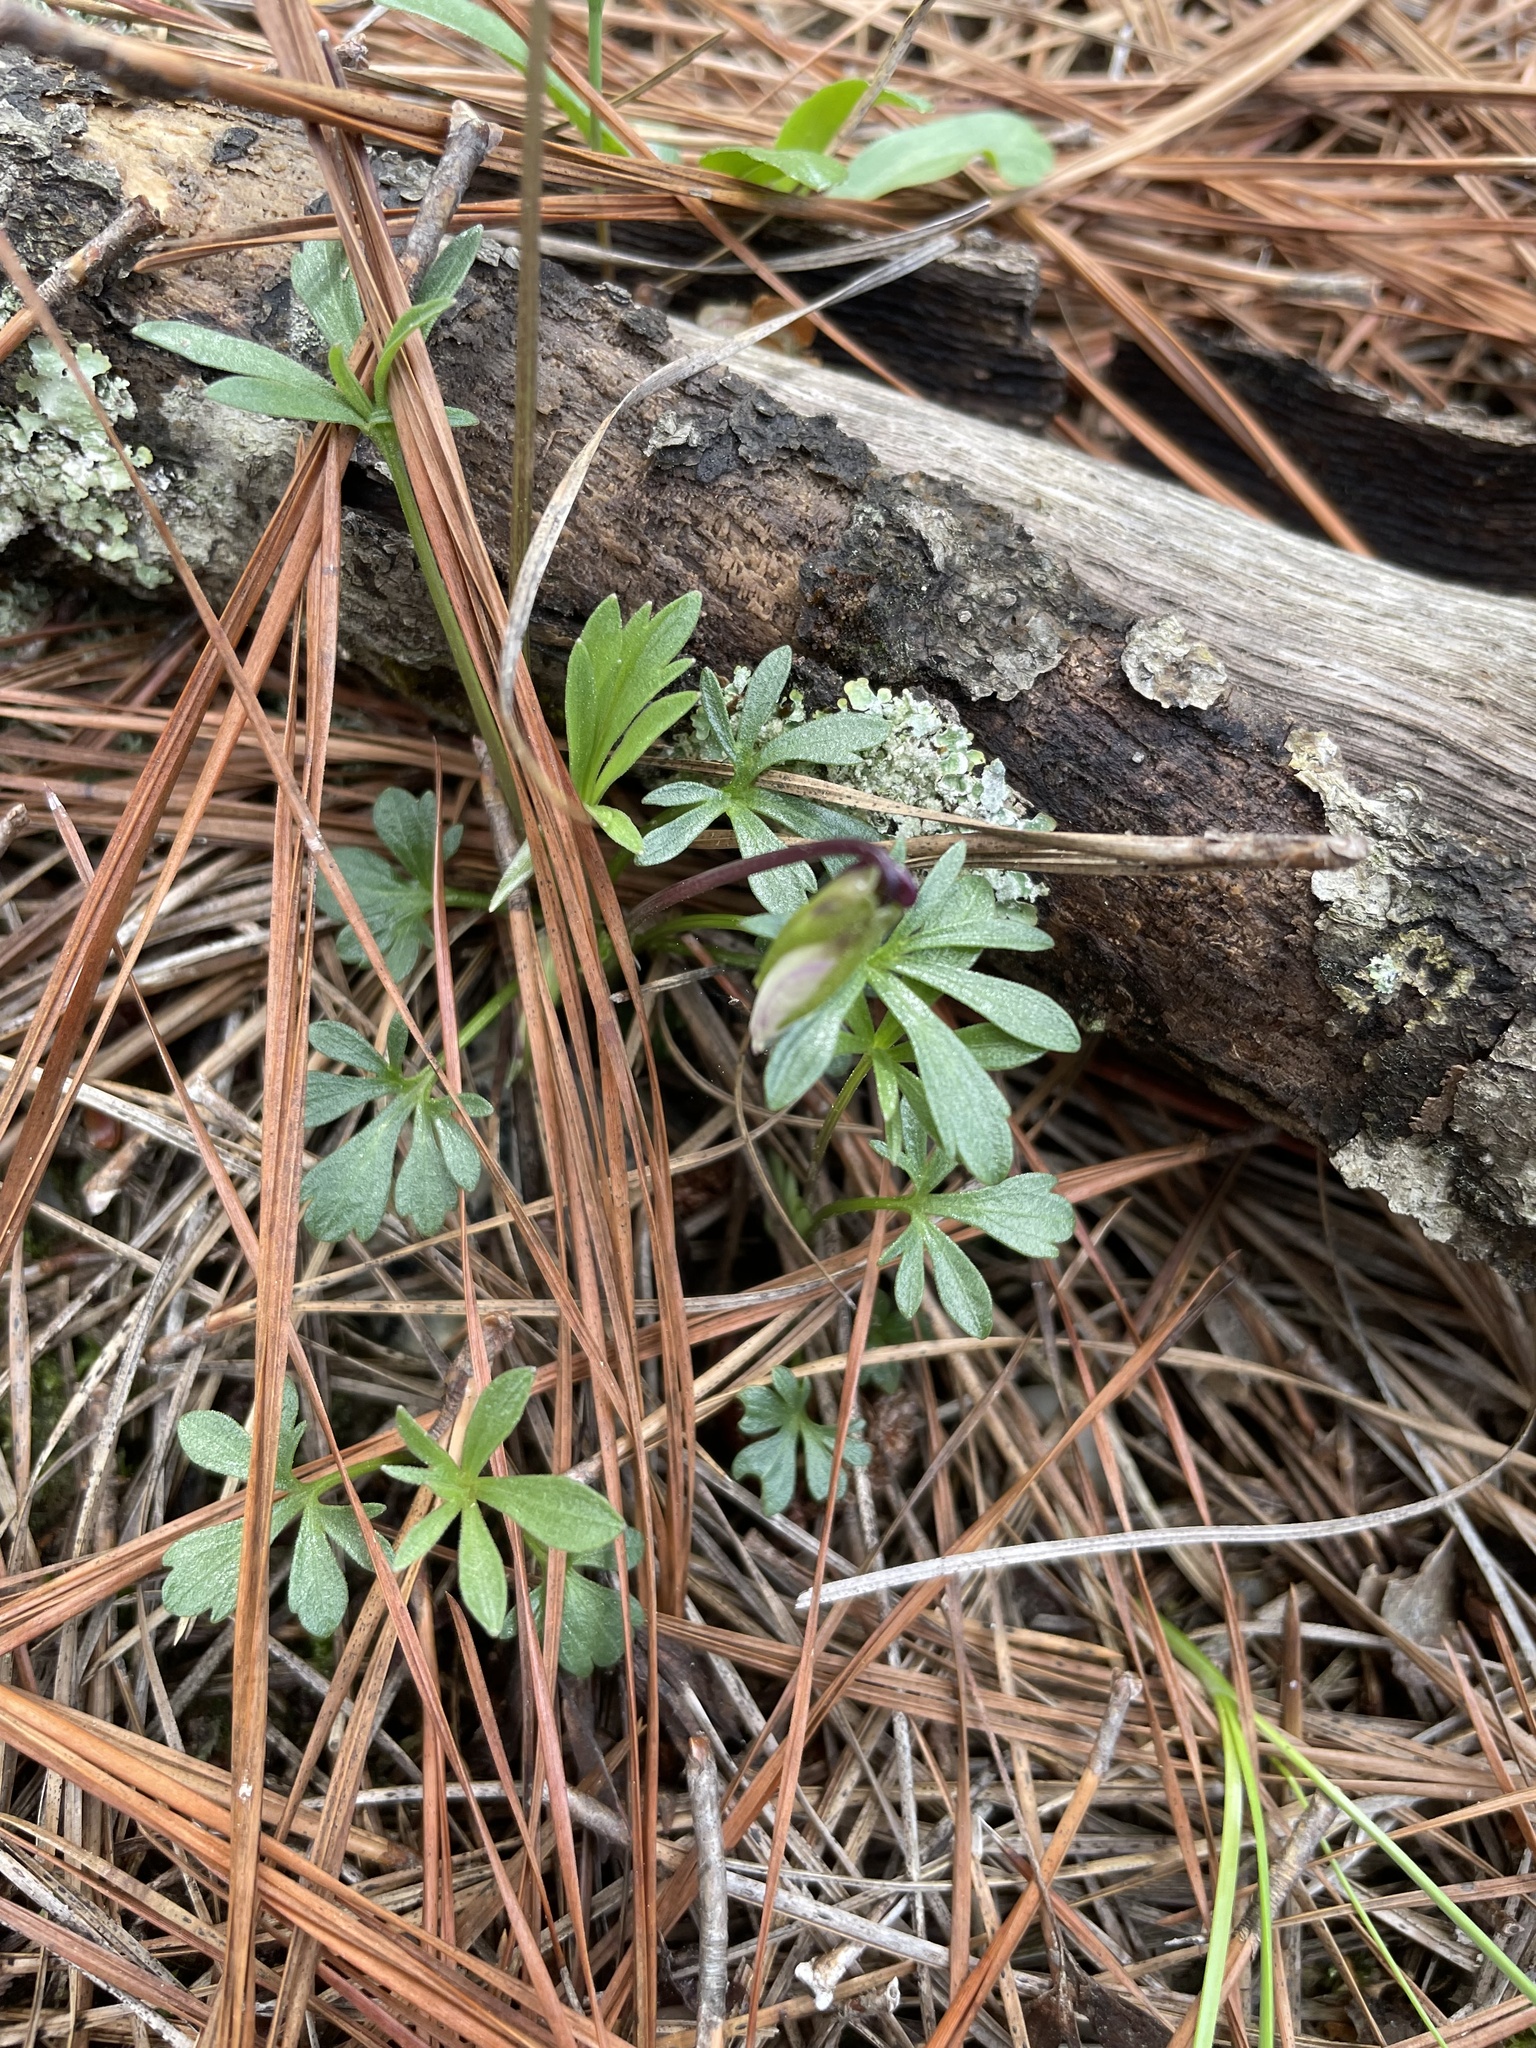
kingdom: Plantae
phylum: Tracheophyta
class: Magnoliopsida
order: Malpighiales
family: Violaceae
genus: Viola
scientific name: Viola pedata
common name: Pansy violet
